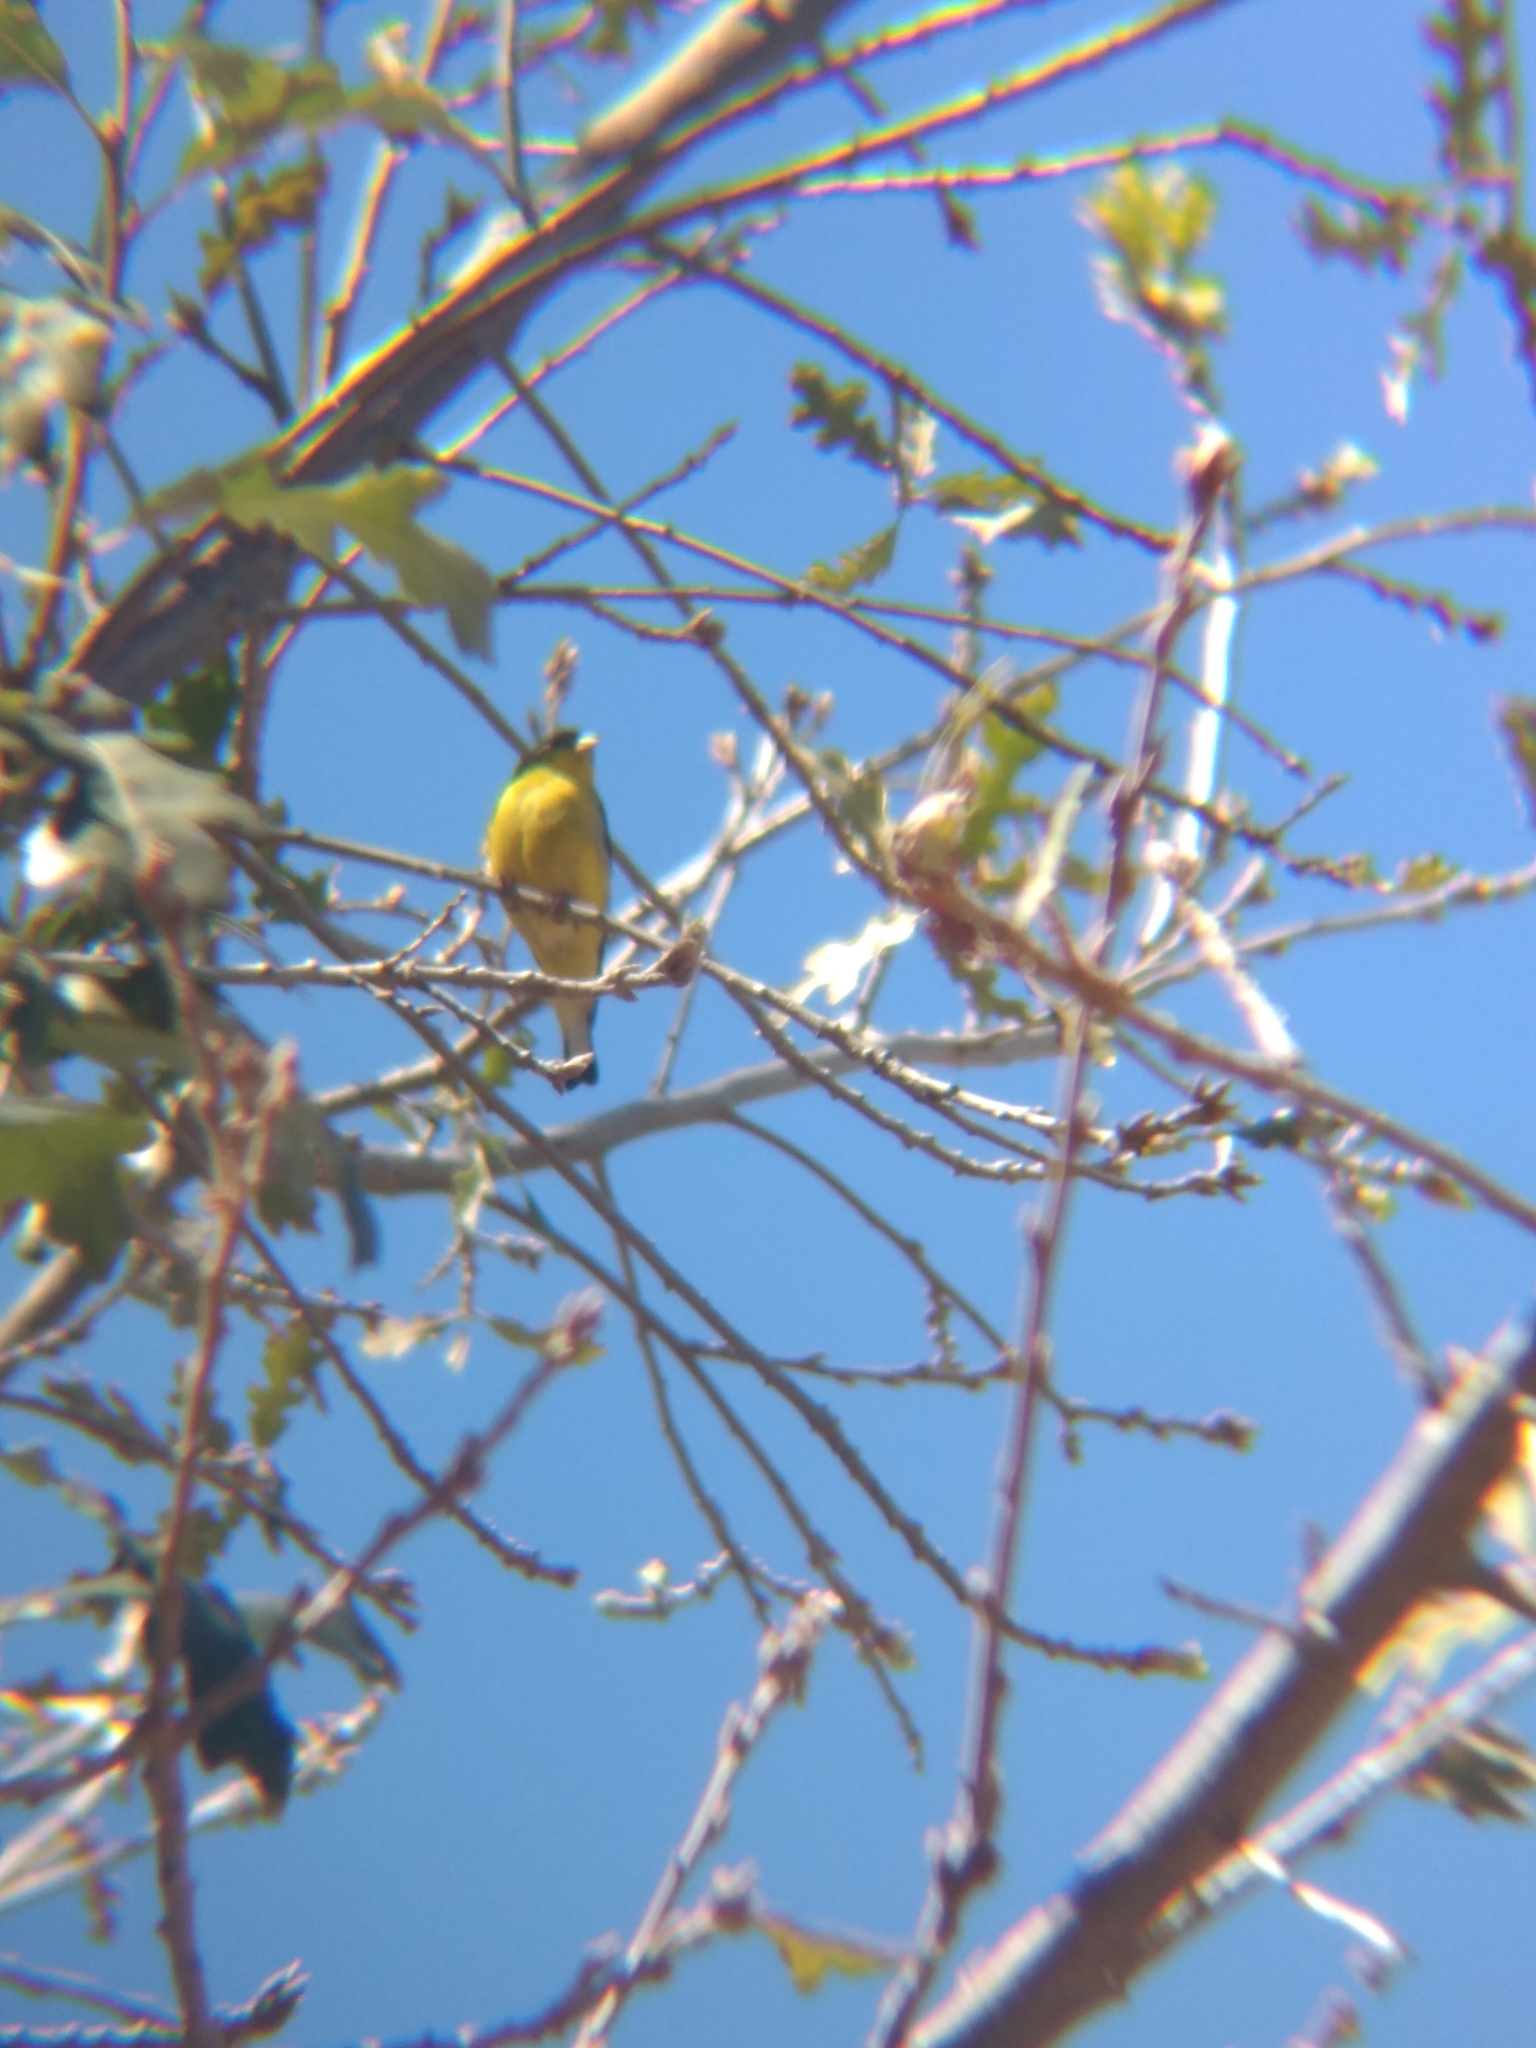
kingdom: Animalia
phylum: Chordata
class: Aves
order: Passeriformes
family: Fringillidae
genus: Spinus
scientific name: Spinus psaltria
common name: Lesser goldfinch
